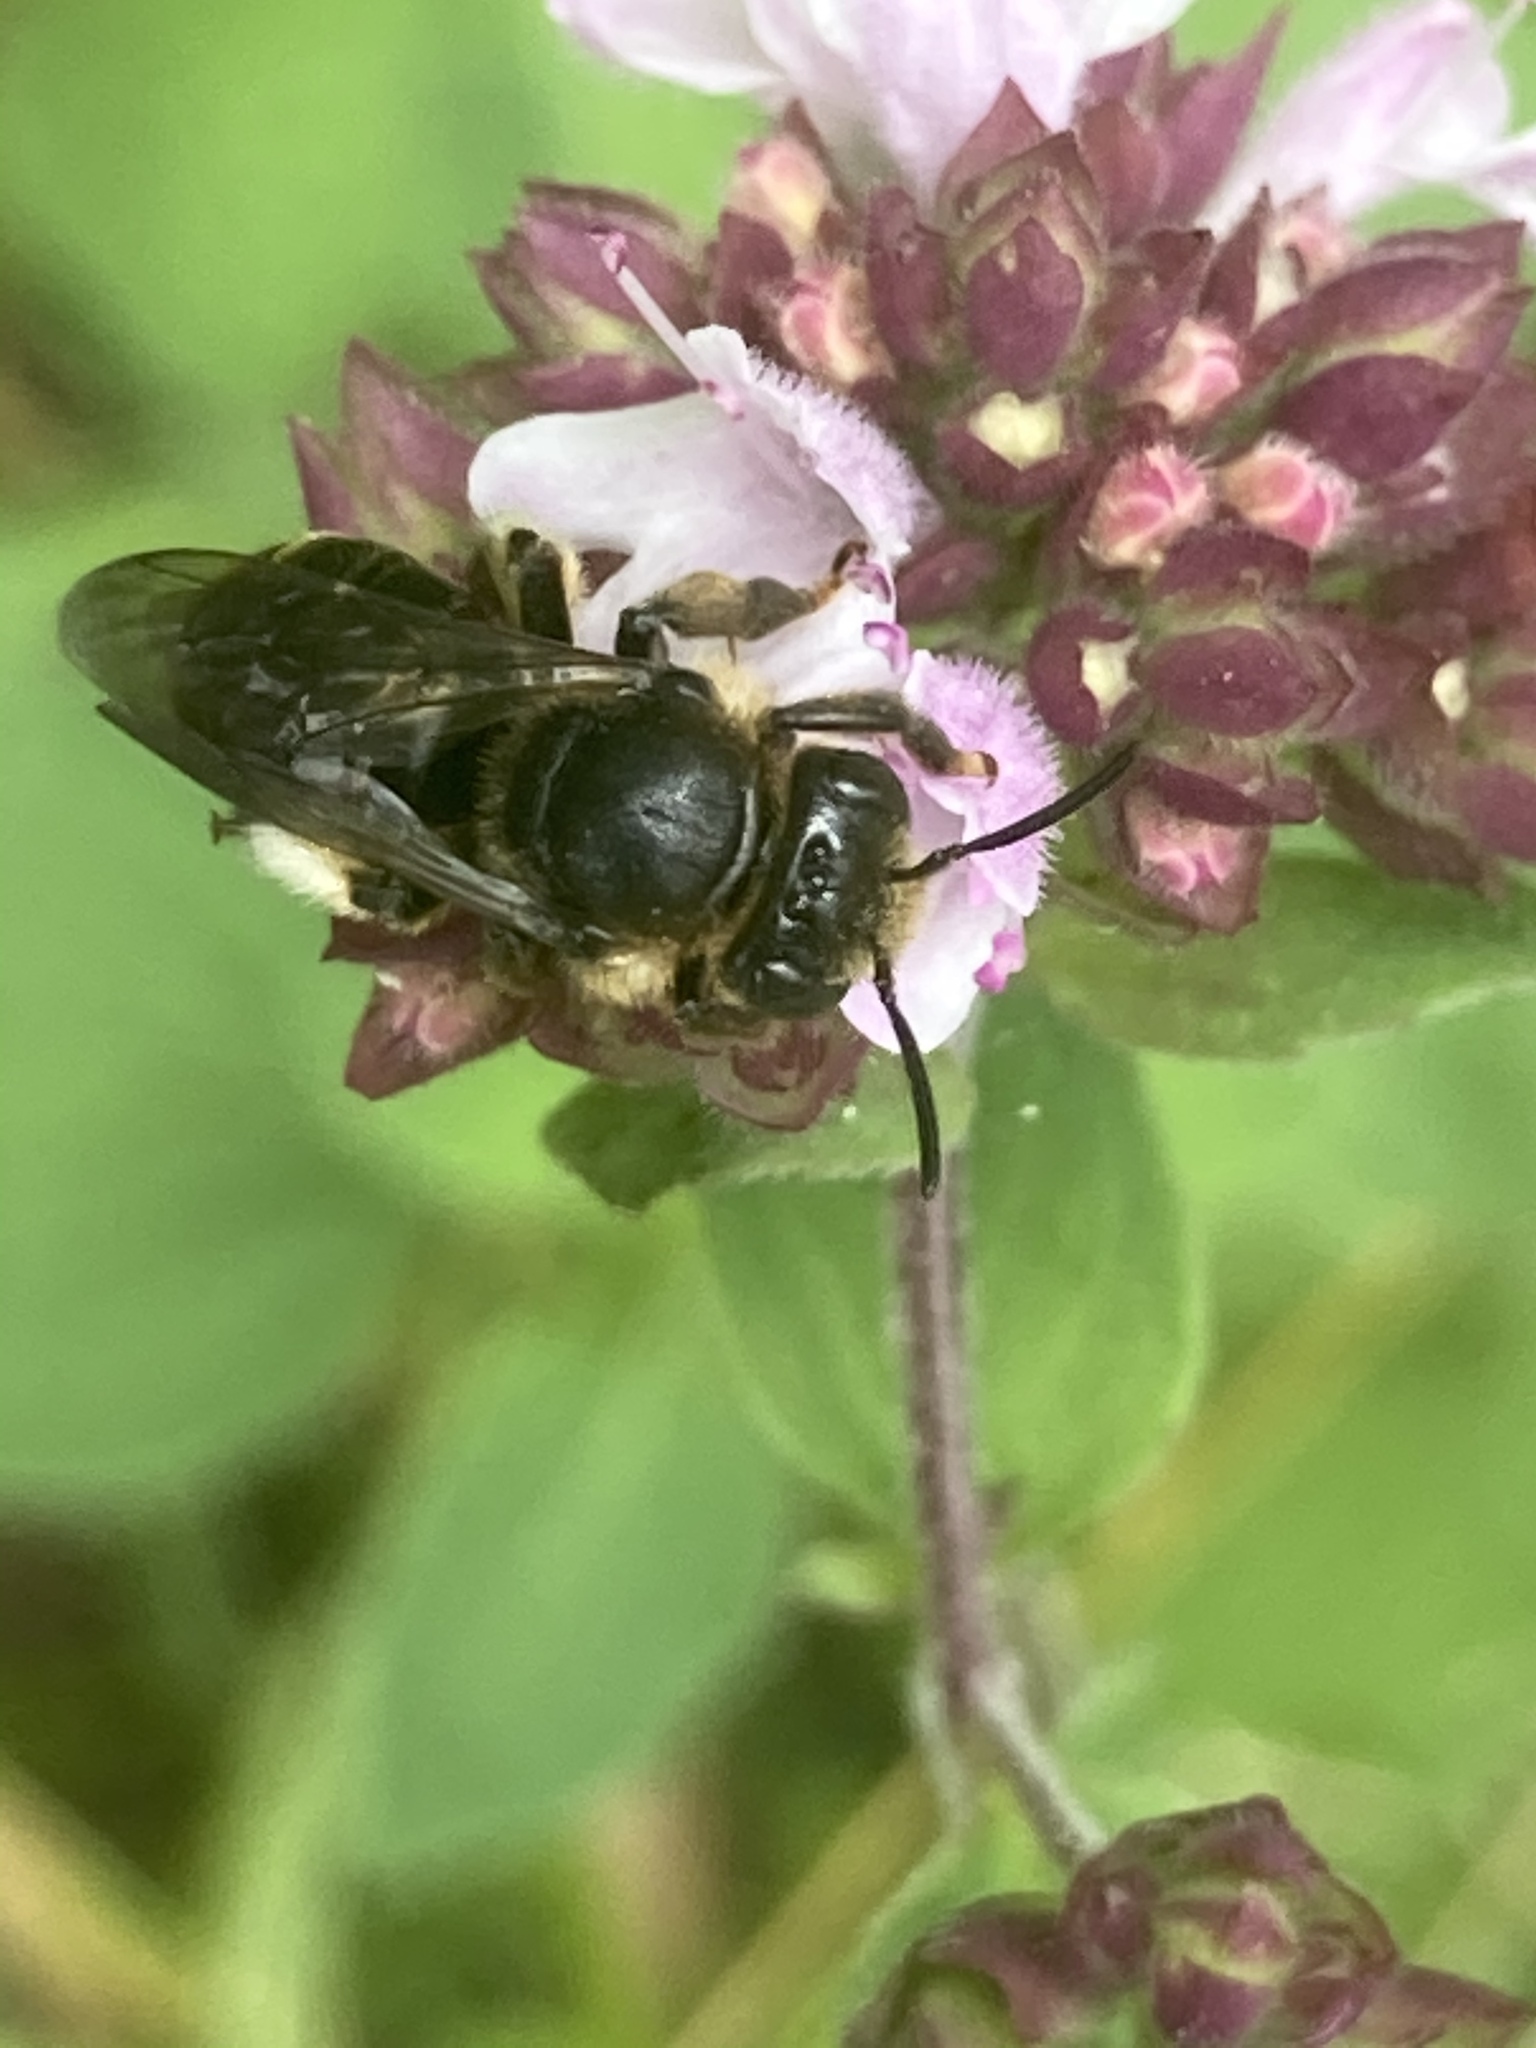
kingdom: Plantae
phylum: Tracheophyta
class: Magnoliopsida
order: Lamiales
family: Lamiaceae
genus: Origanum
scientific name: Origanum vulgare
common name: Wild marjoram
